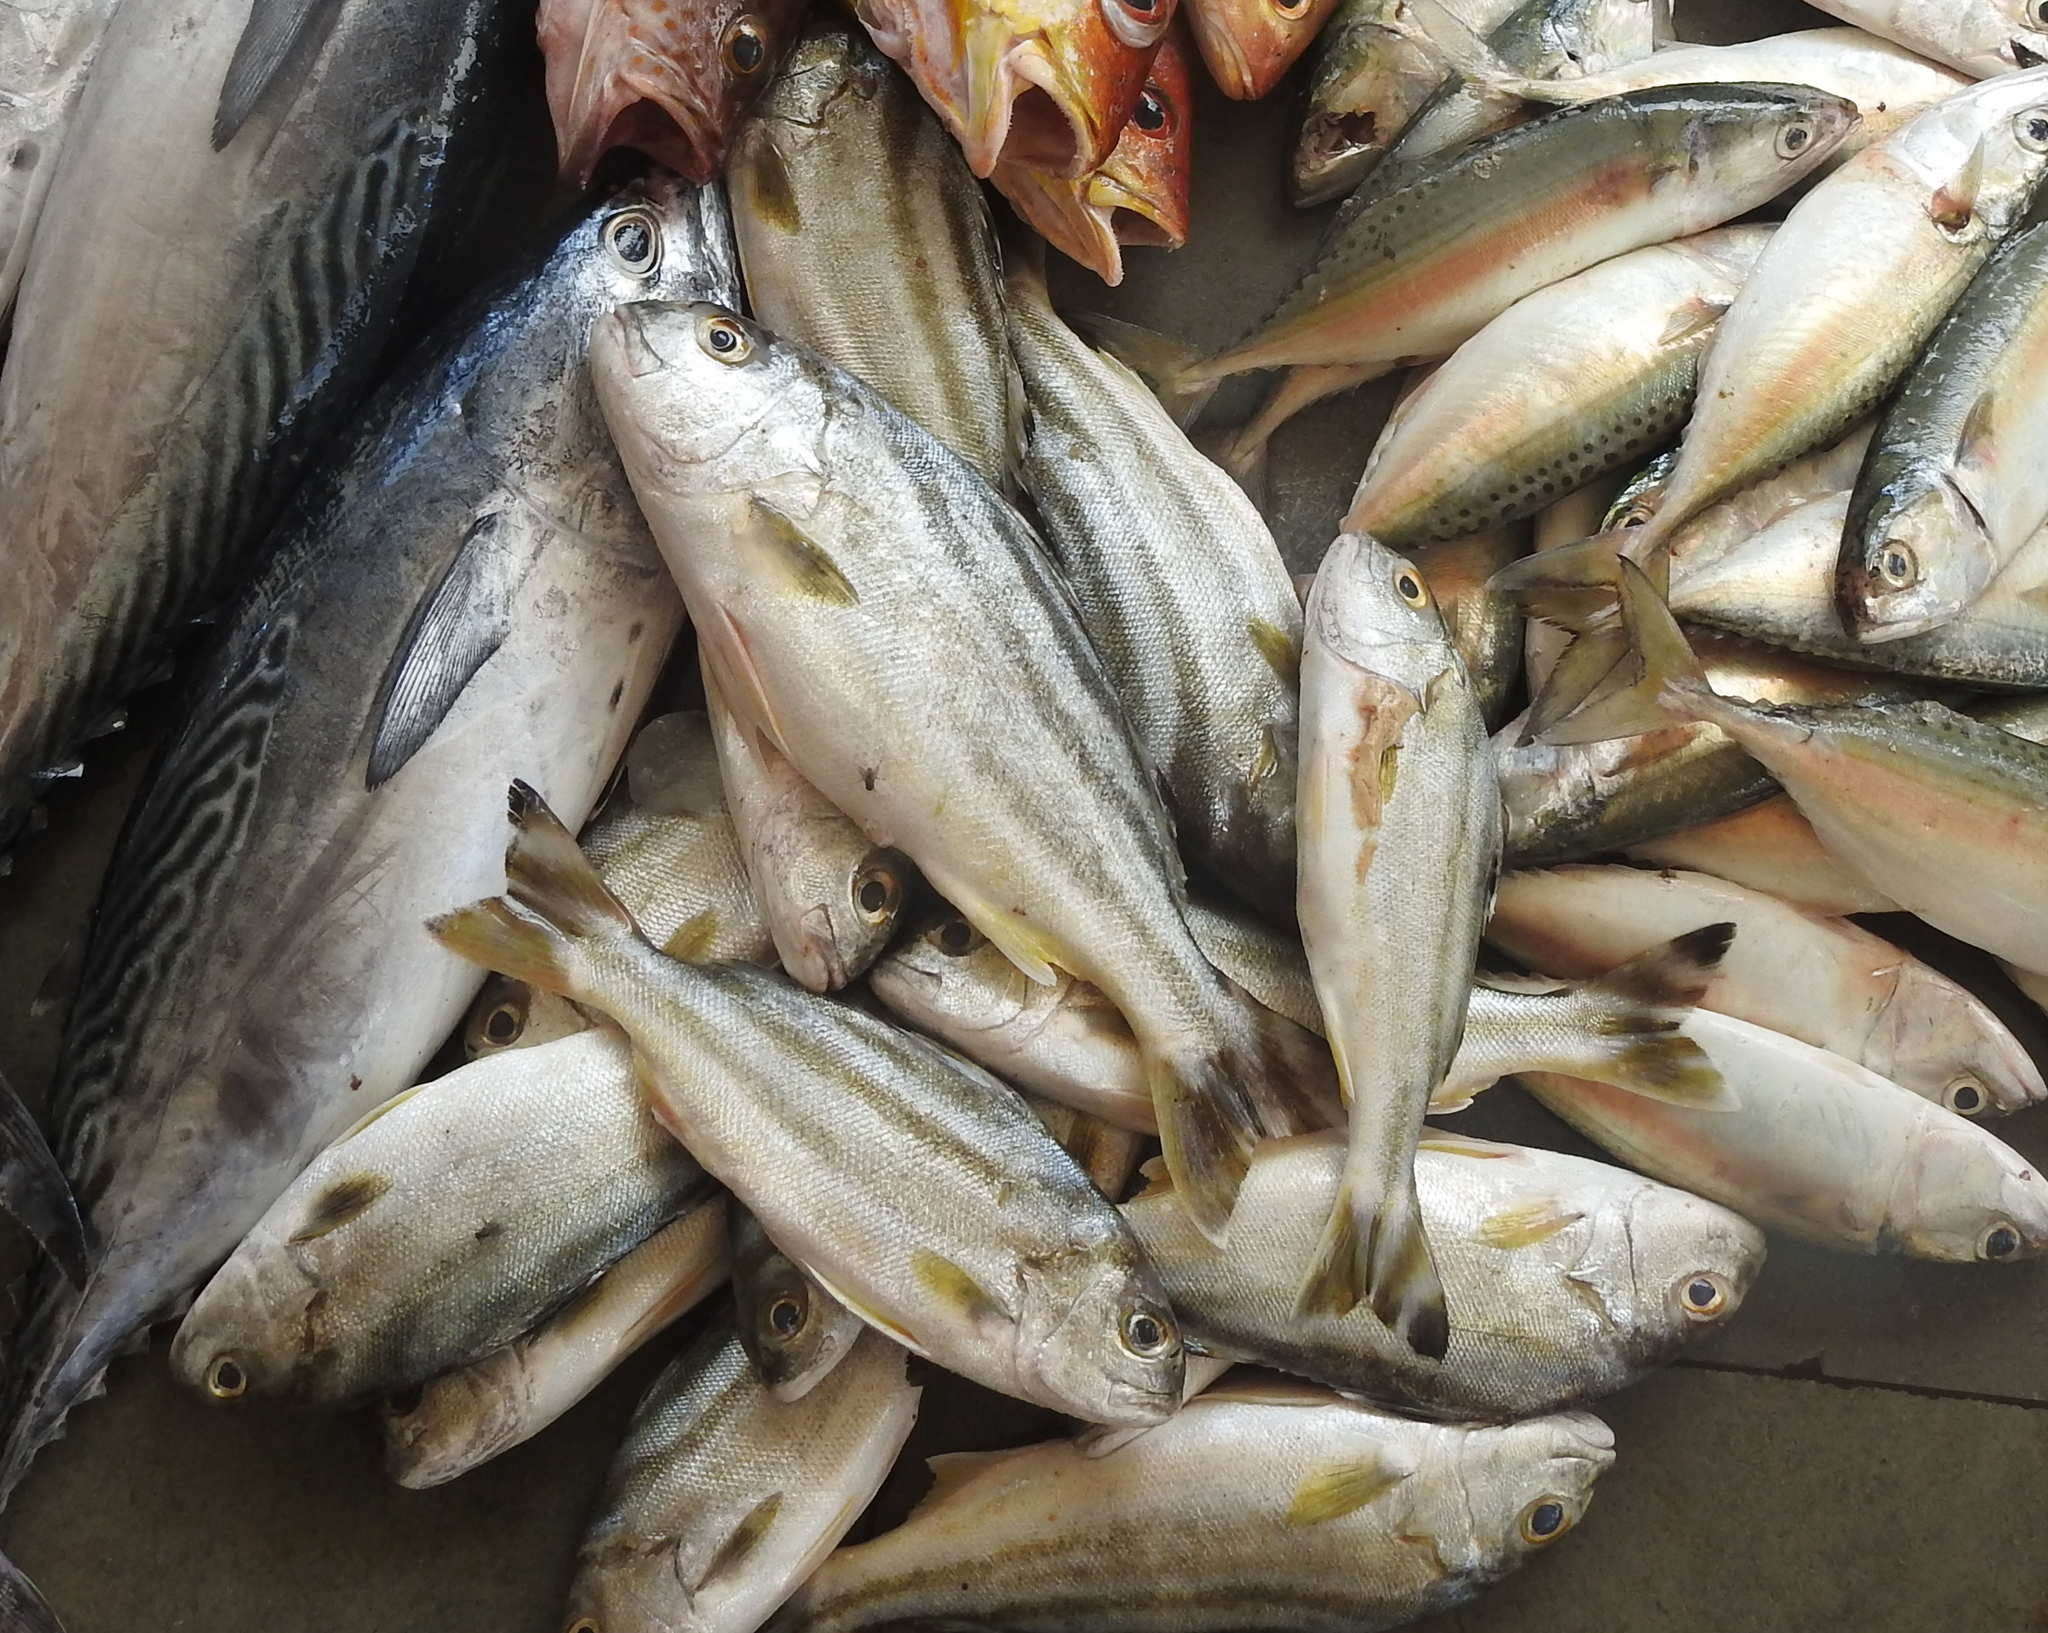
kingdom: Animalia
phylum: Chordata
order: Perciformes
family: Terapontidae
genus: Terapon
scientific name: Terapon jarbua
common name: Jarbua terapon
